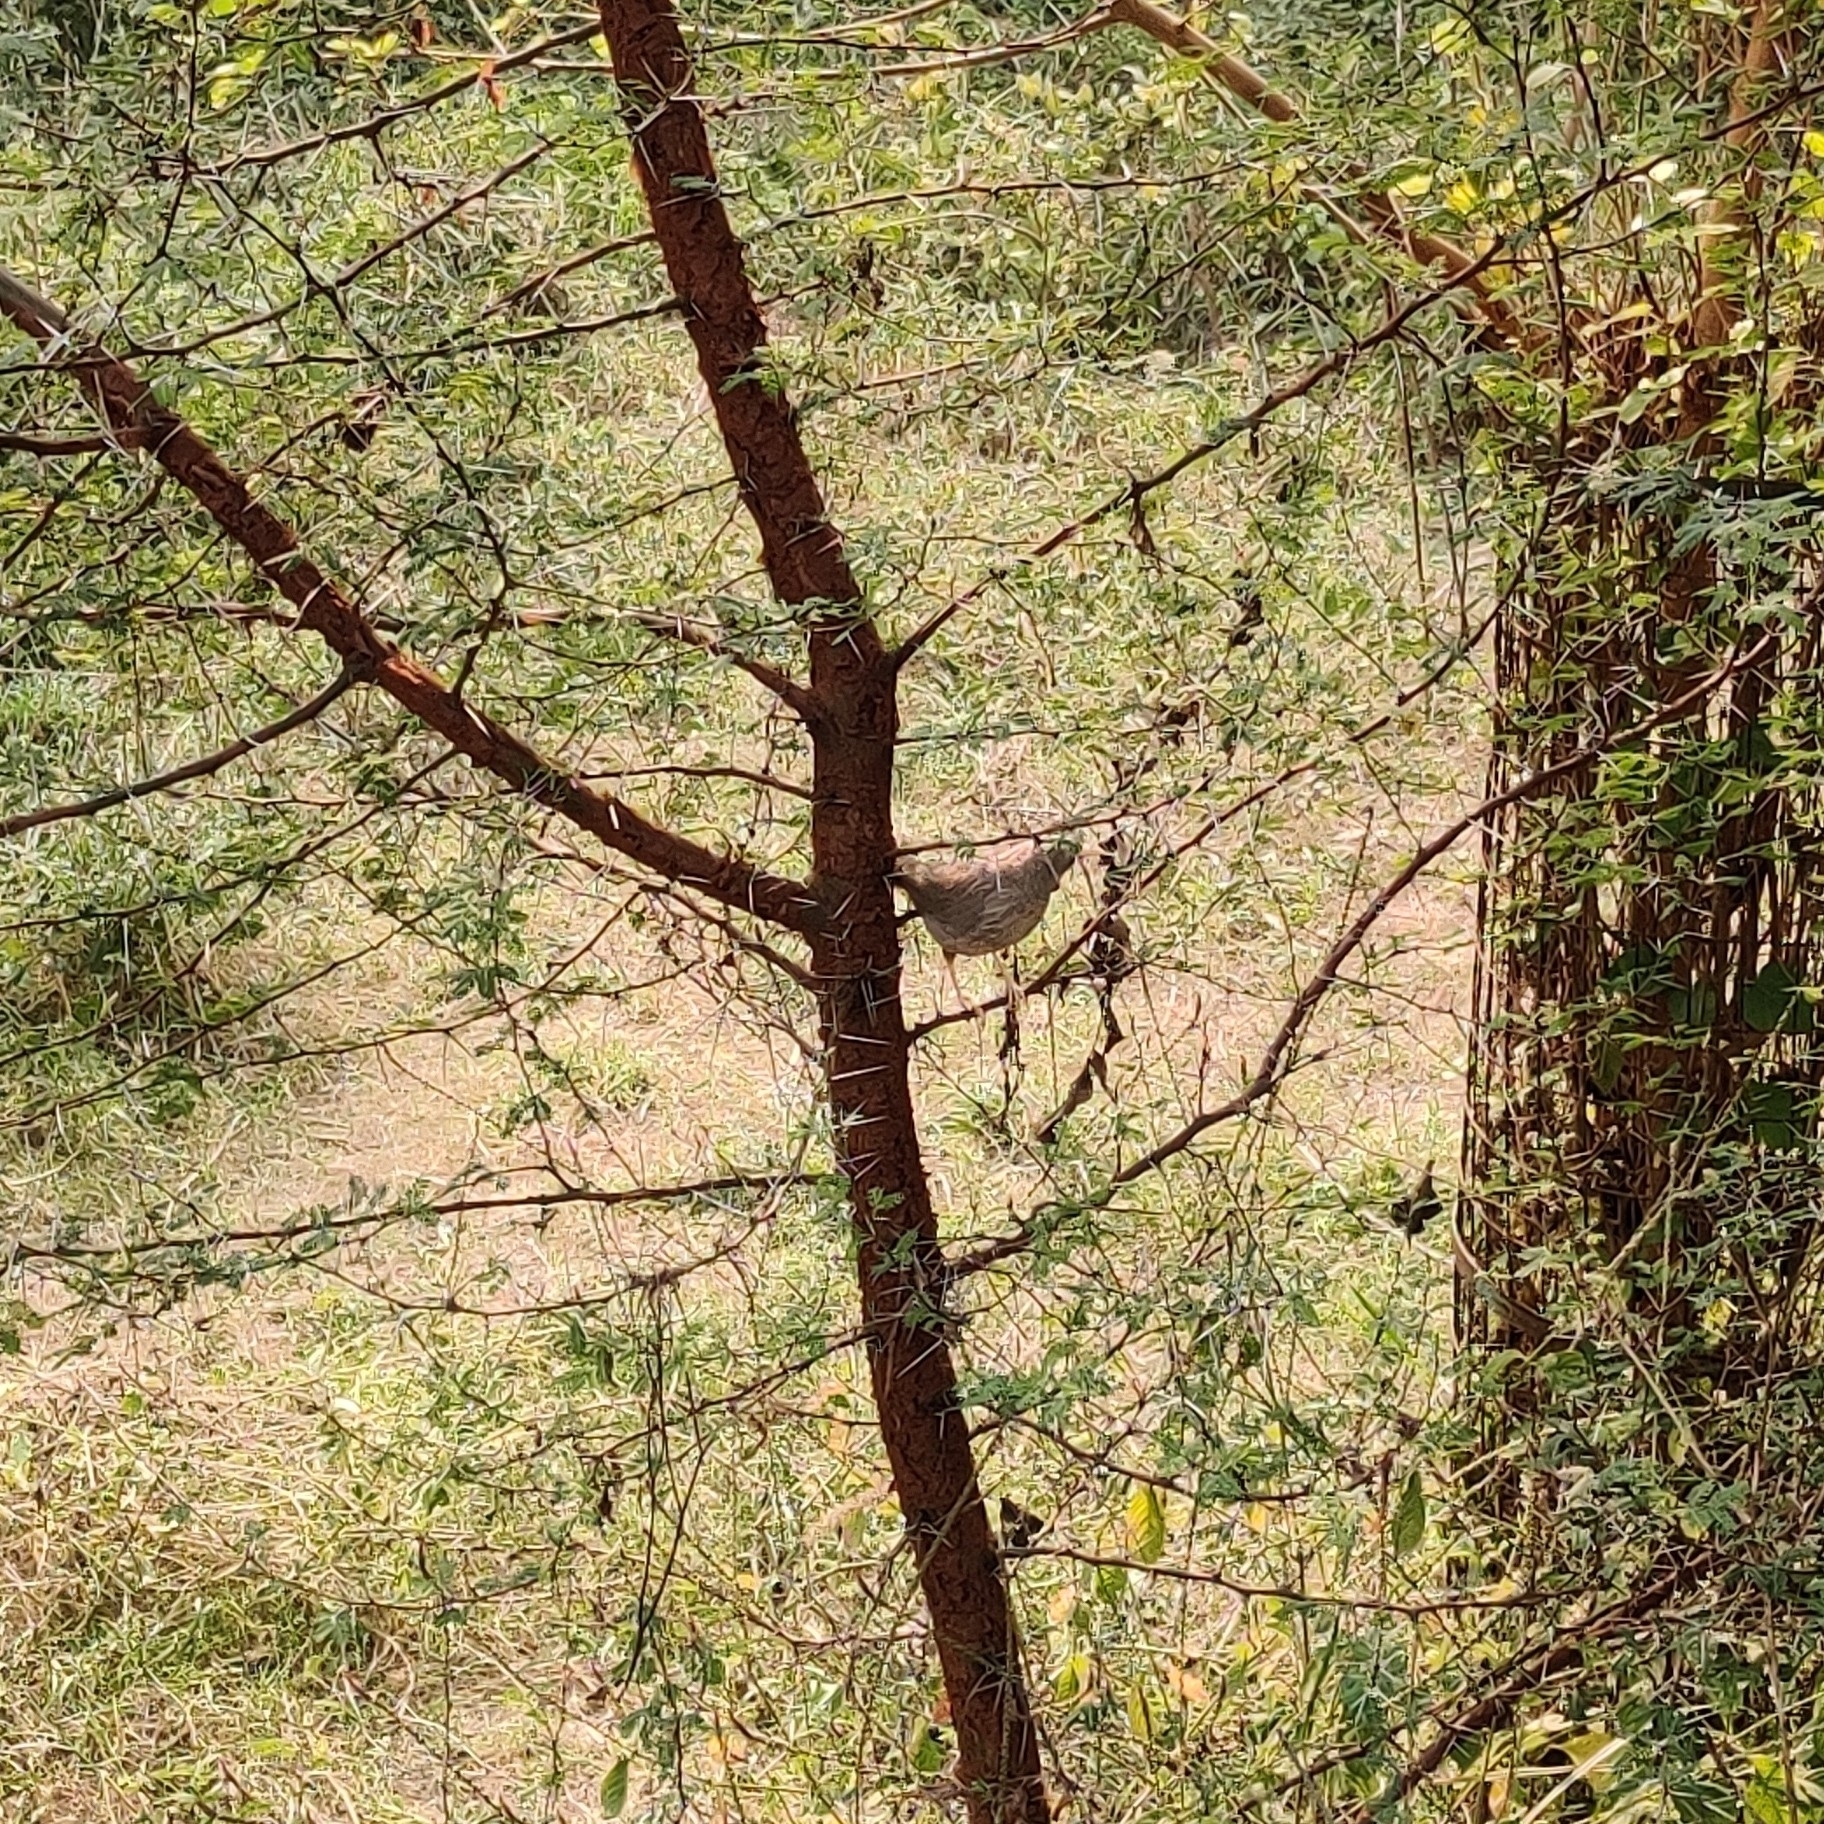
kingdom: Animalia
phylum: Chordata
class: Aves
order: Passeriformes
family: Leiothrichidae
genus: Turdoides
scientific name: Turdoides striata
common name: Jungle babbler
